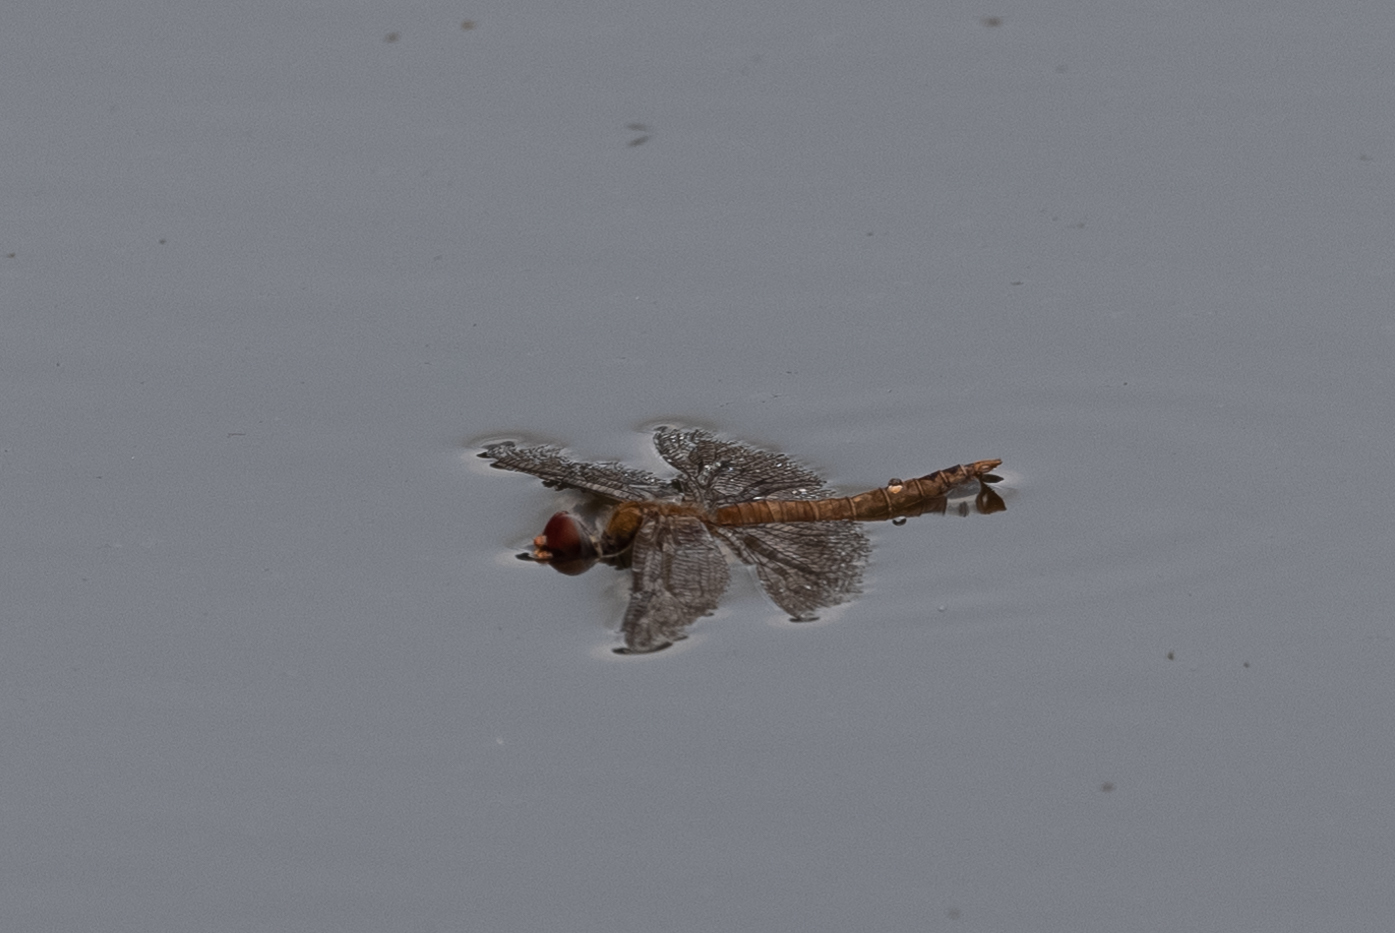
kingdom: Animalia
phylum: Arthropoda
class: Insecta
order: Odonata
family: Libellulidae
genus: Pantala
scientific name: Pantala flavescens
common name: Wandering glider
